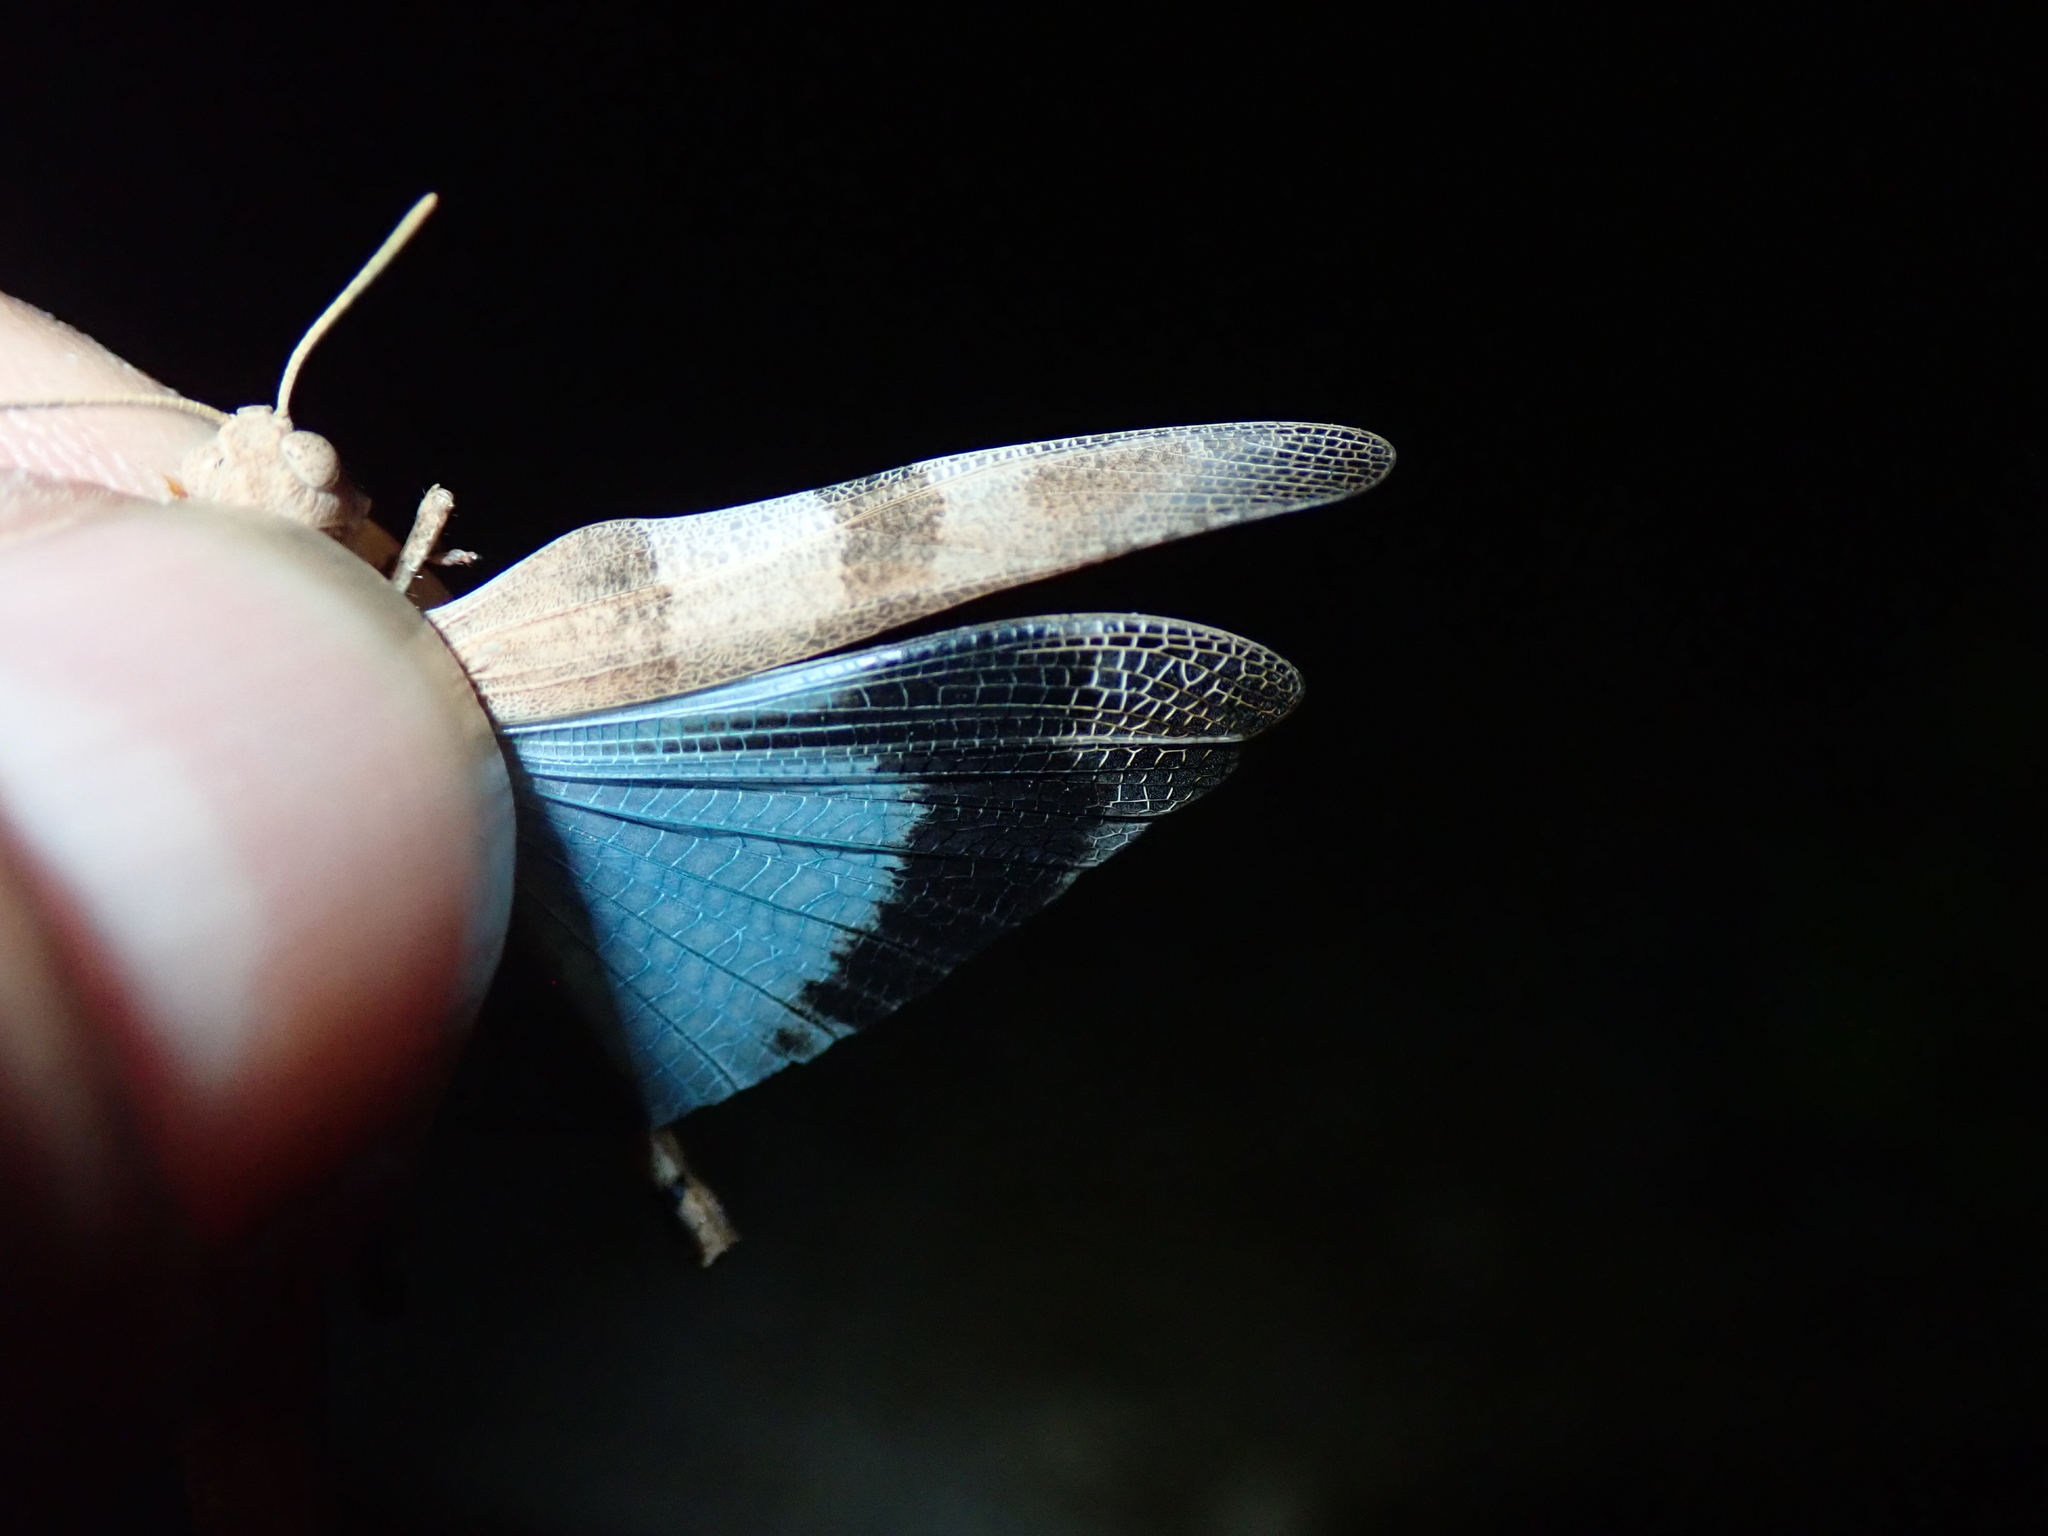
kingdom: Animalia
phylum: Arthropoda
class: Insecta
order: Orthoptera
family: Acrididae
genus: Oedipoda
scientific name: Oedipoda caerulescens
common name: Blue-winged grasshopper
